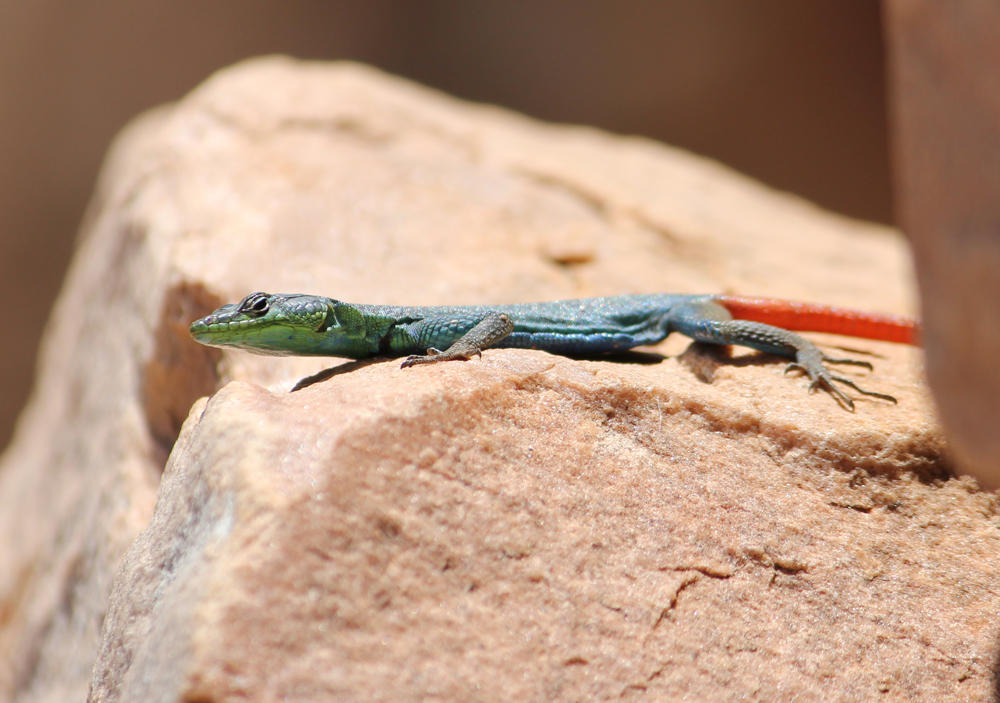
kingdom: Animalia
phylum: Chordata
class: Squamata
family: Cordylidae
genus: Platysaurus
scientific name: Platysaurus relictus
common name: Soutpansberg flat lizard
